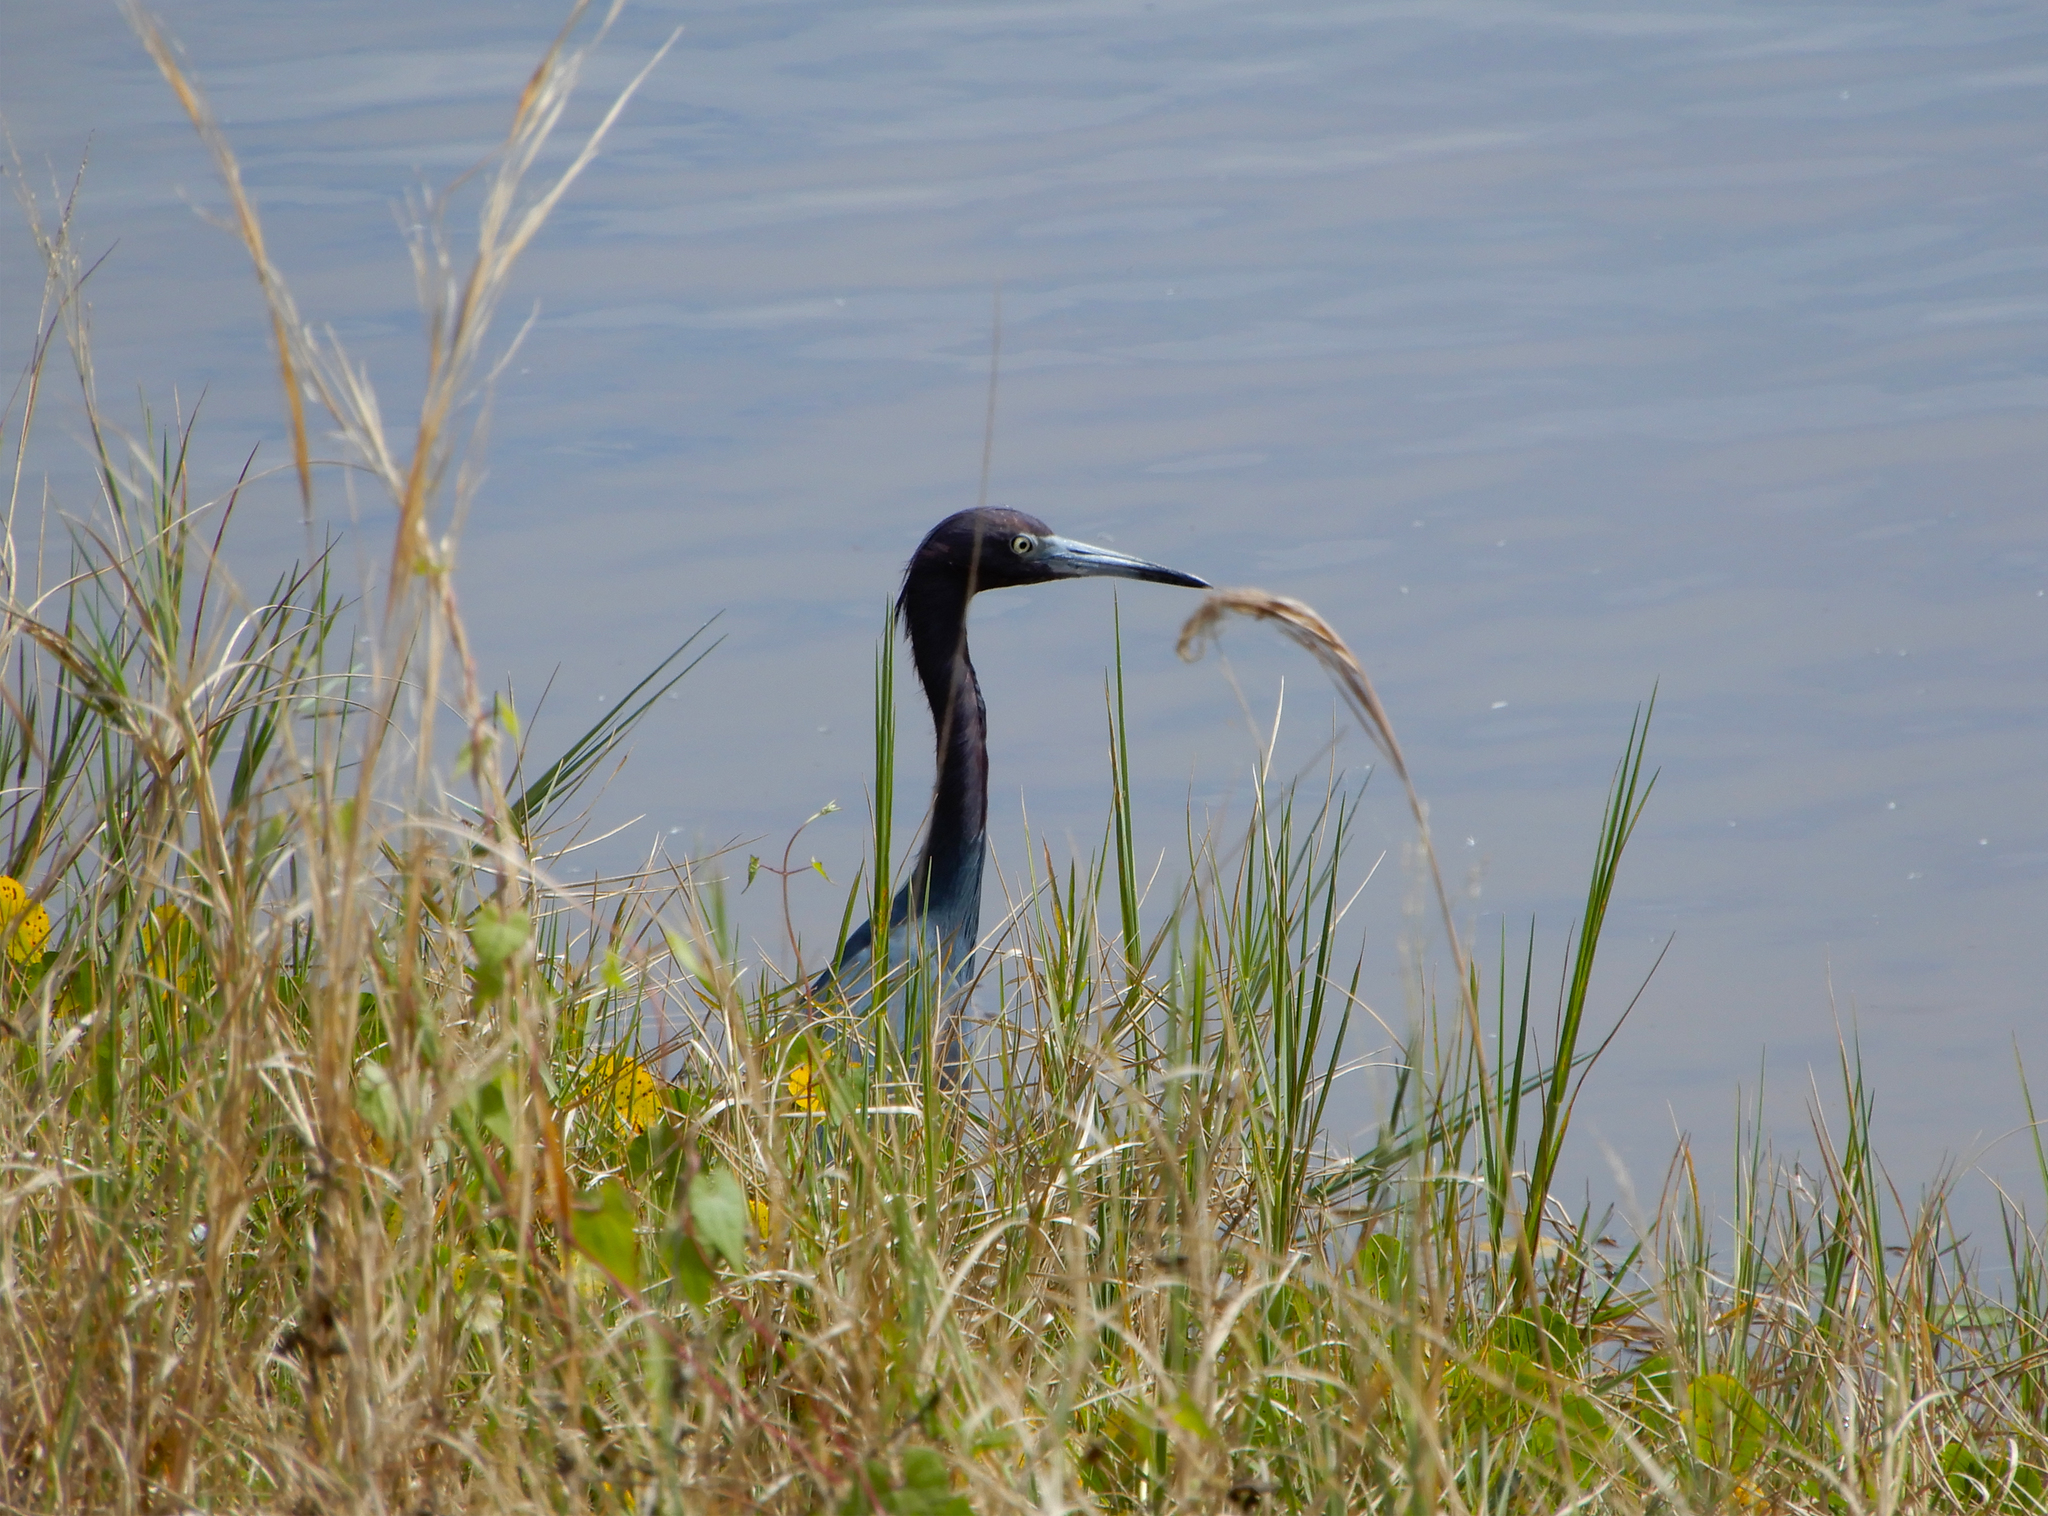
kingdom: Animalia
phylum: Chordata
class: Aves
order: Pelecaniformes
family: Ardeidae
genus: Egretta
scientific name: Egretta caerulea
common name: Little blue heron
